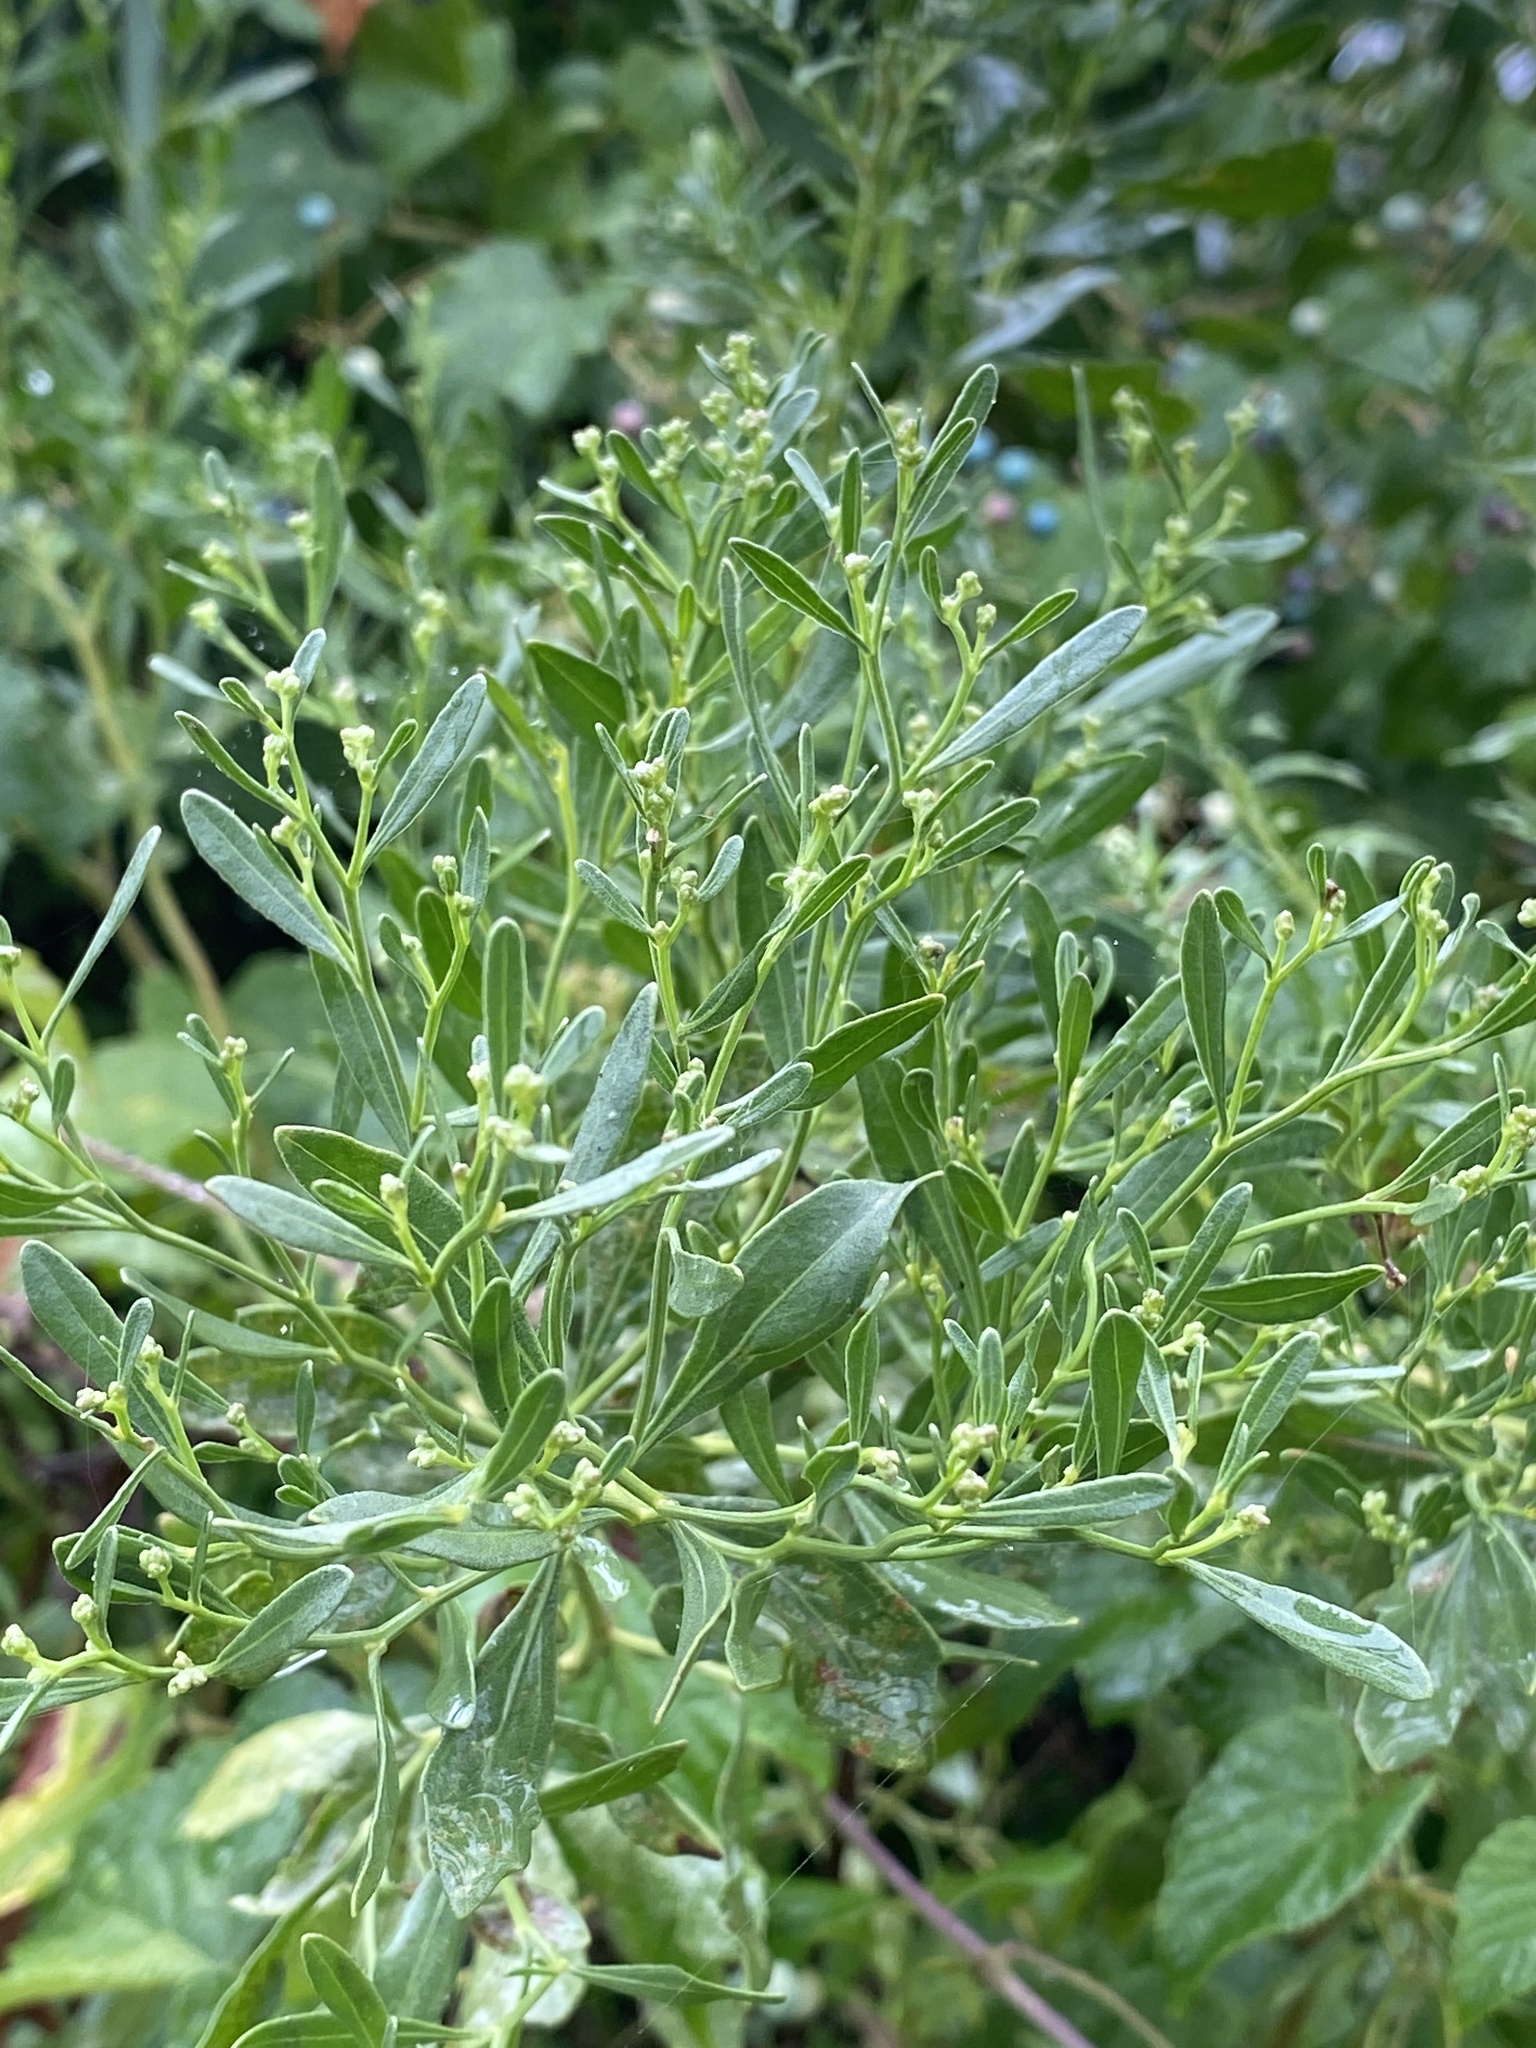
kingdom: Plantae
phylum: Tracheophyta
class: Magnoliopsida
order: Asterales
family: Asteraceae
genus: Baccharis
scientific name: Baccharis halimifolia
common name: Eastern baccharis
